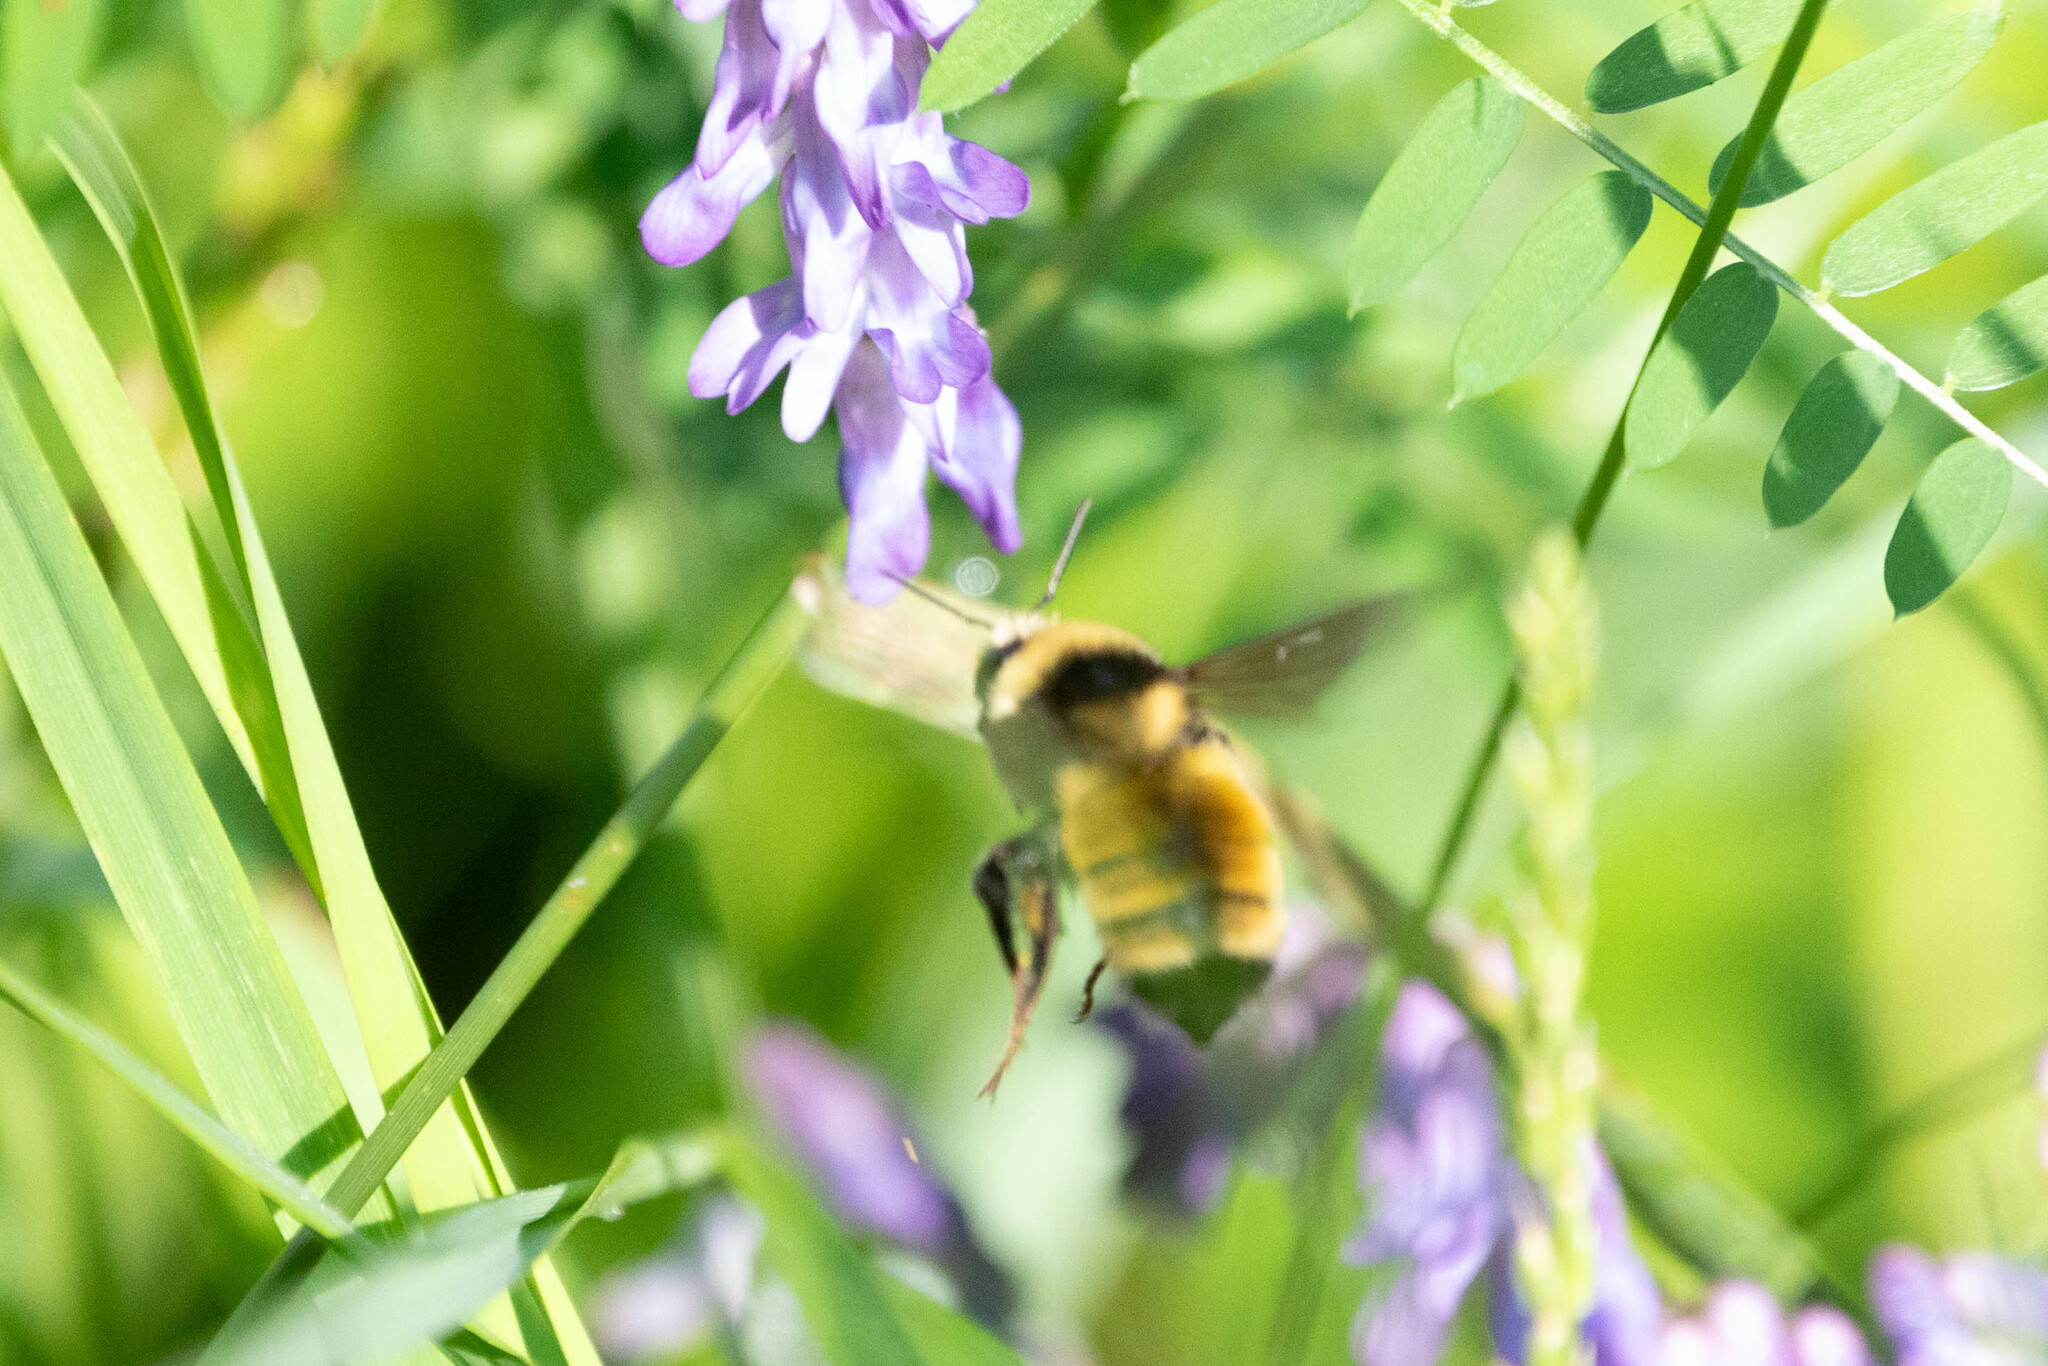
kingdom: Animalia
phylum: Arthropoda
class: Insecta
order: Hymenoptera
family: Apidae
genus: Bombus
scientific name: Bombus borealis
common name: Northern amber bumble bee
